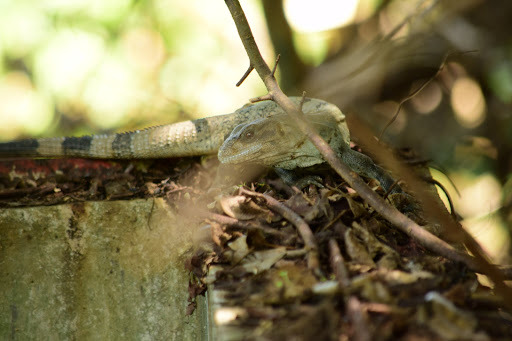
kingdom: Animalia
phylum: Chordata
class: Squamata
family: Iguanidae
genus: Ctenosaura
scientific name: Ctenosaura similis
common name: Black spiny-tailed iguana
